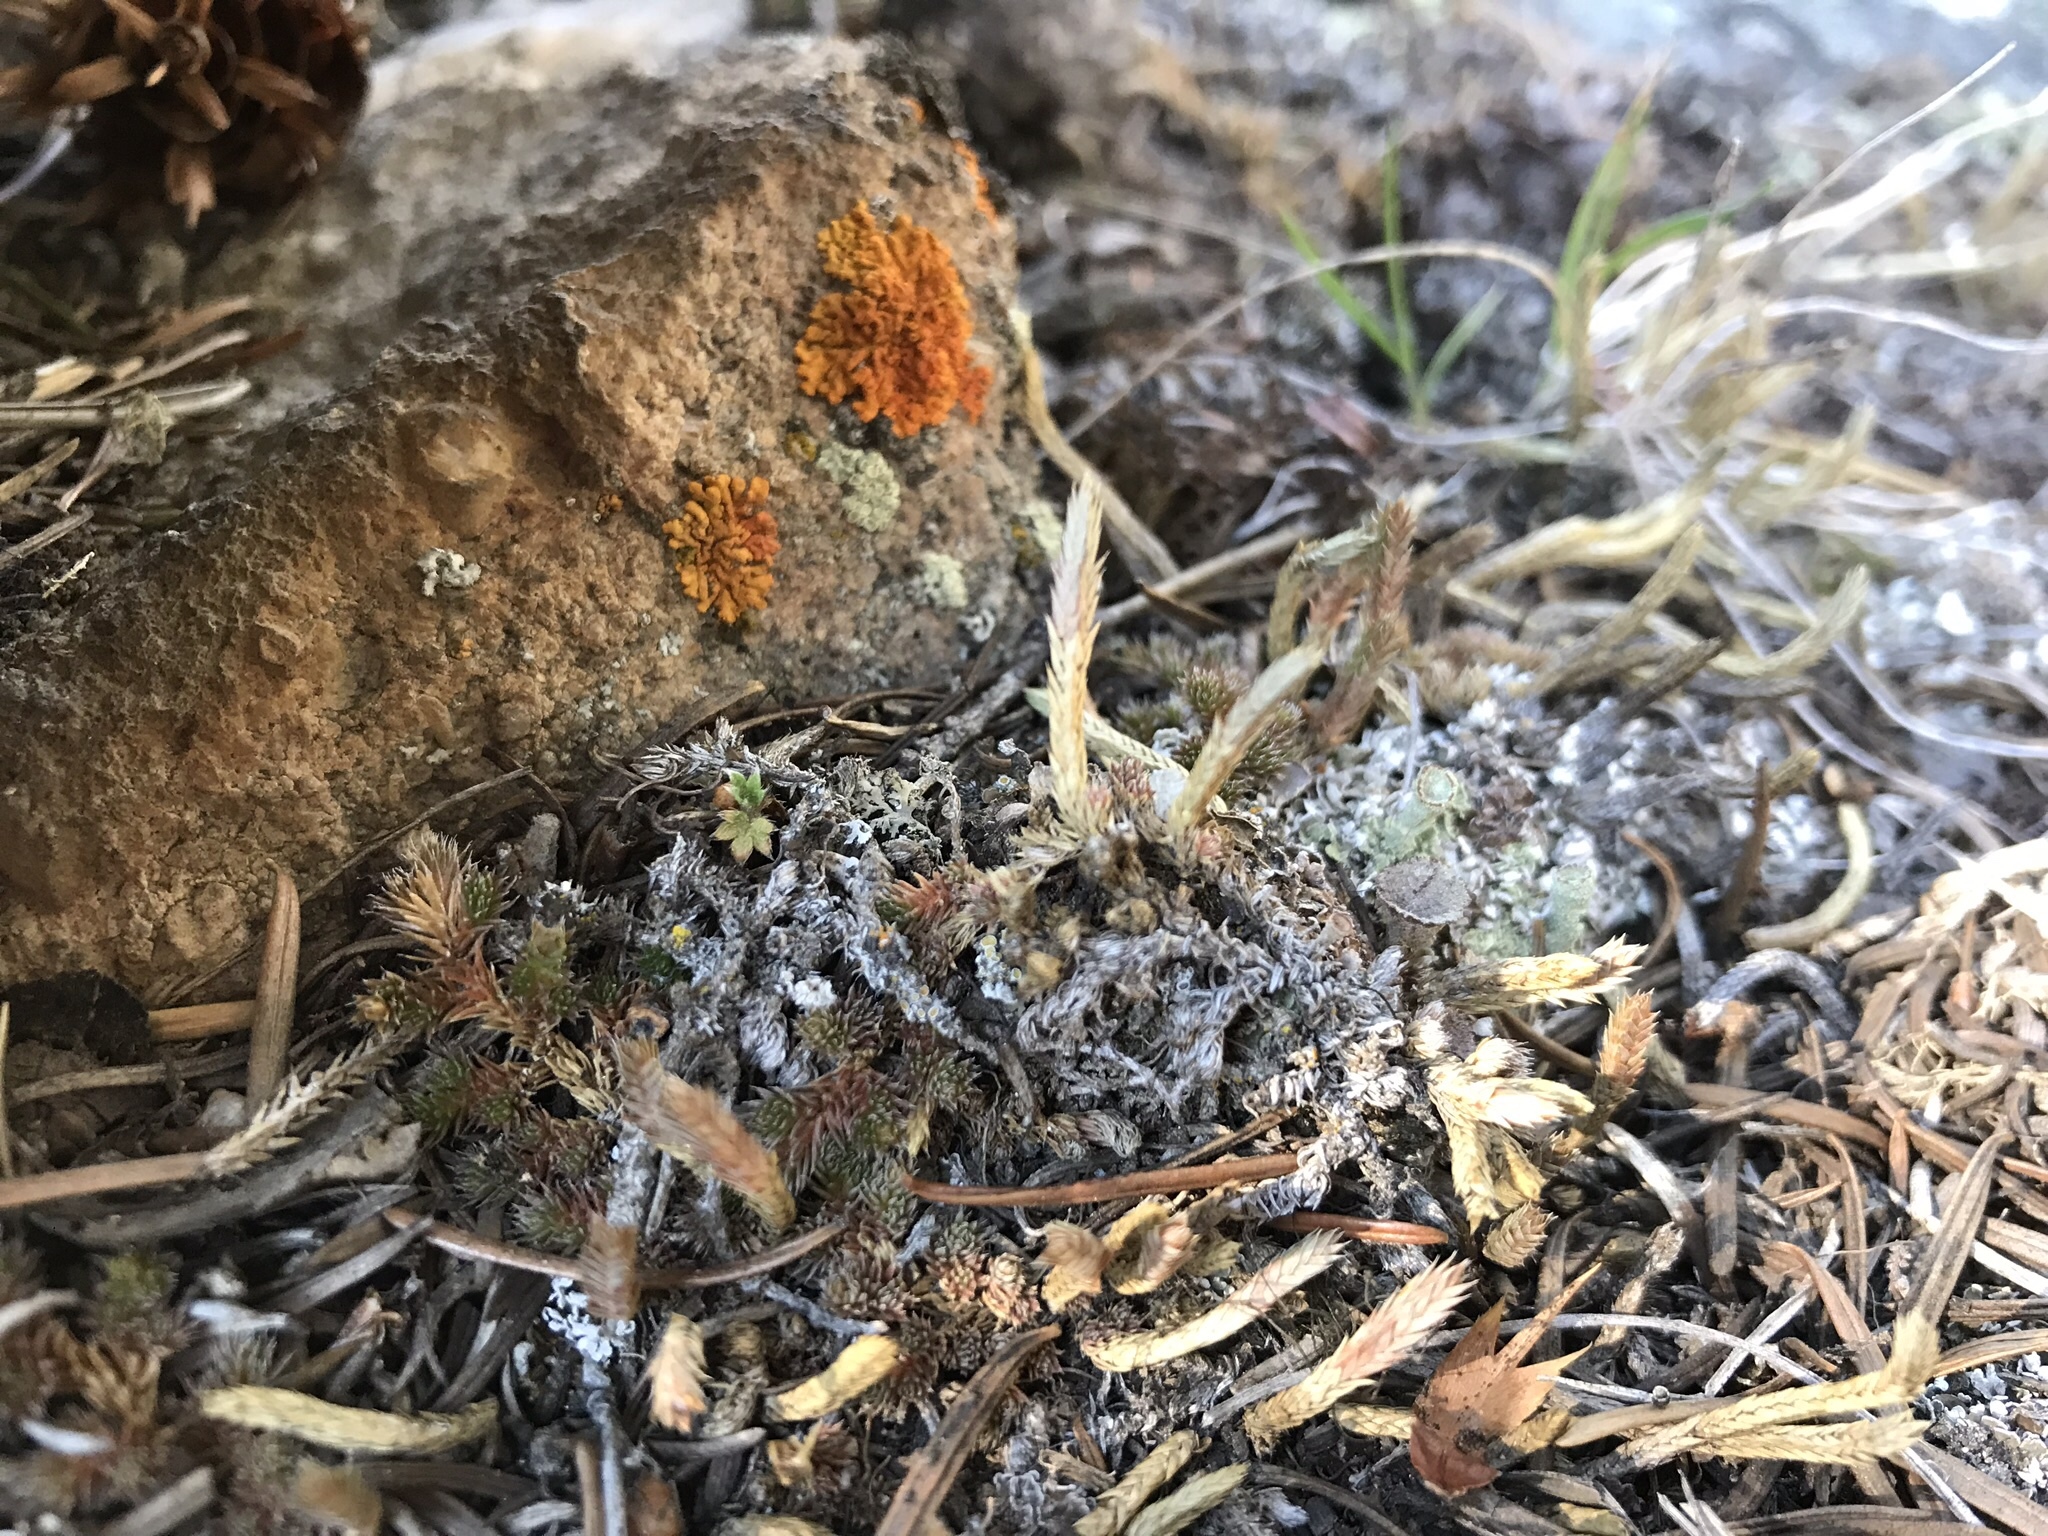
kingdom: Plantae
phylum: Tracheophyta
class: Lycopodiopsida
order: Selaginellales
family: Selaginellaceae
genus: Selaginella
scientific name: Selaginella densa
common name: Mountain spike-moss
